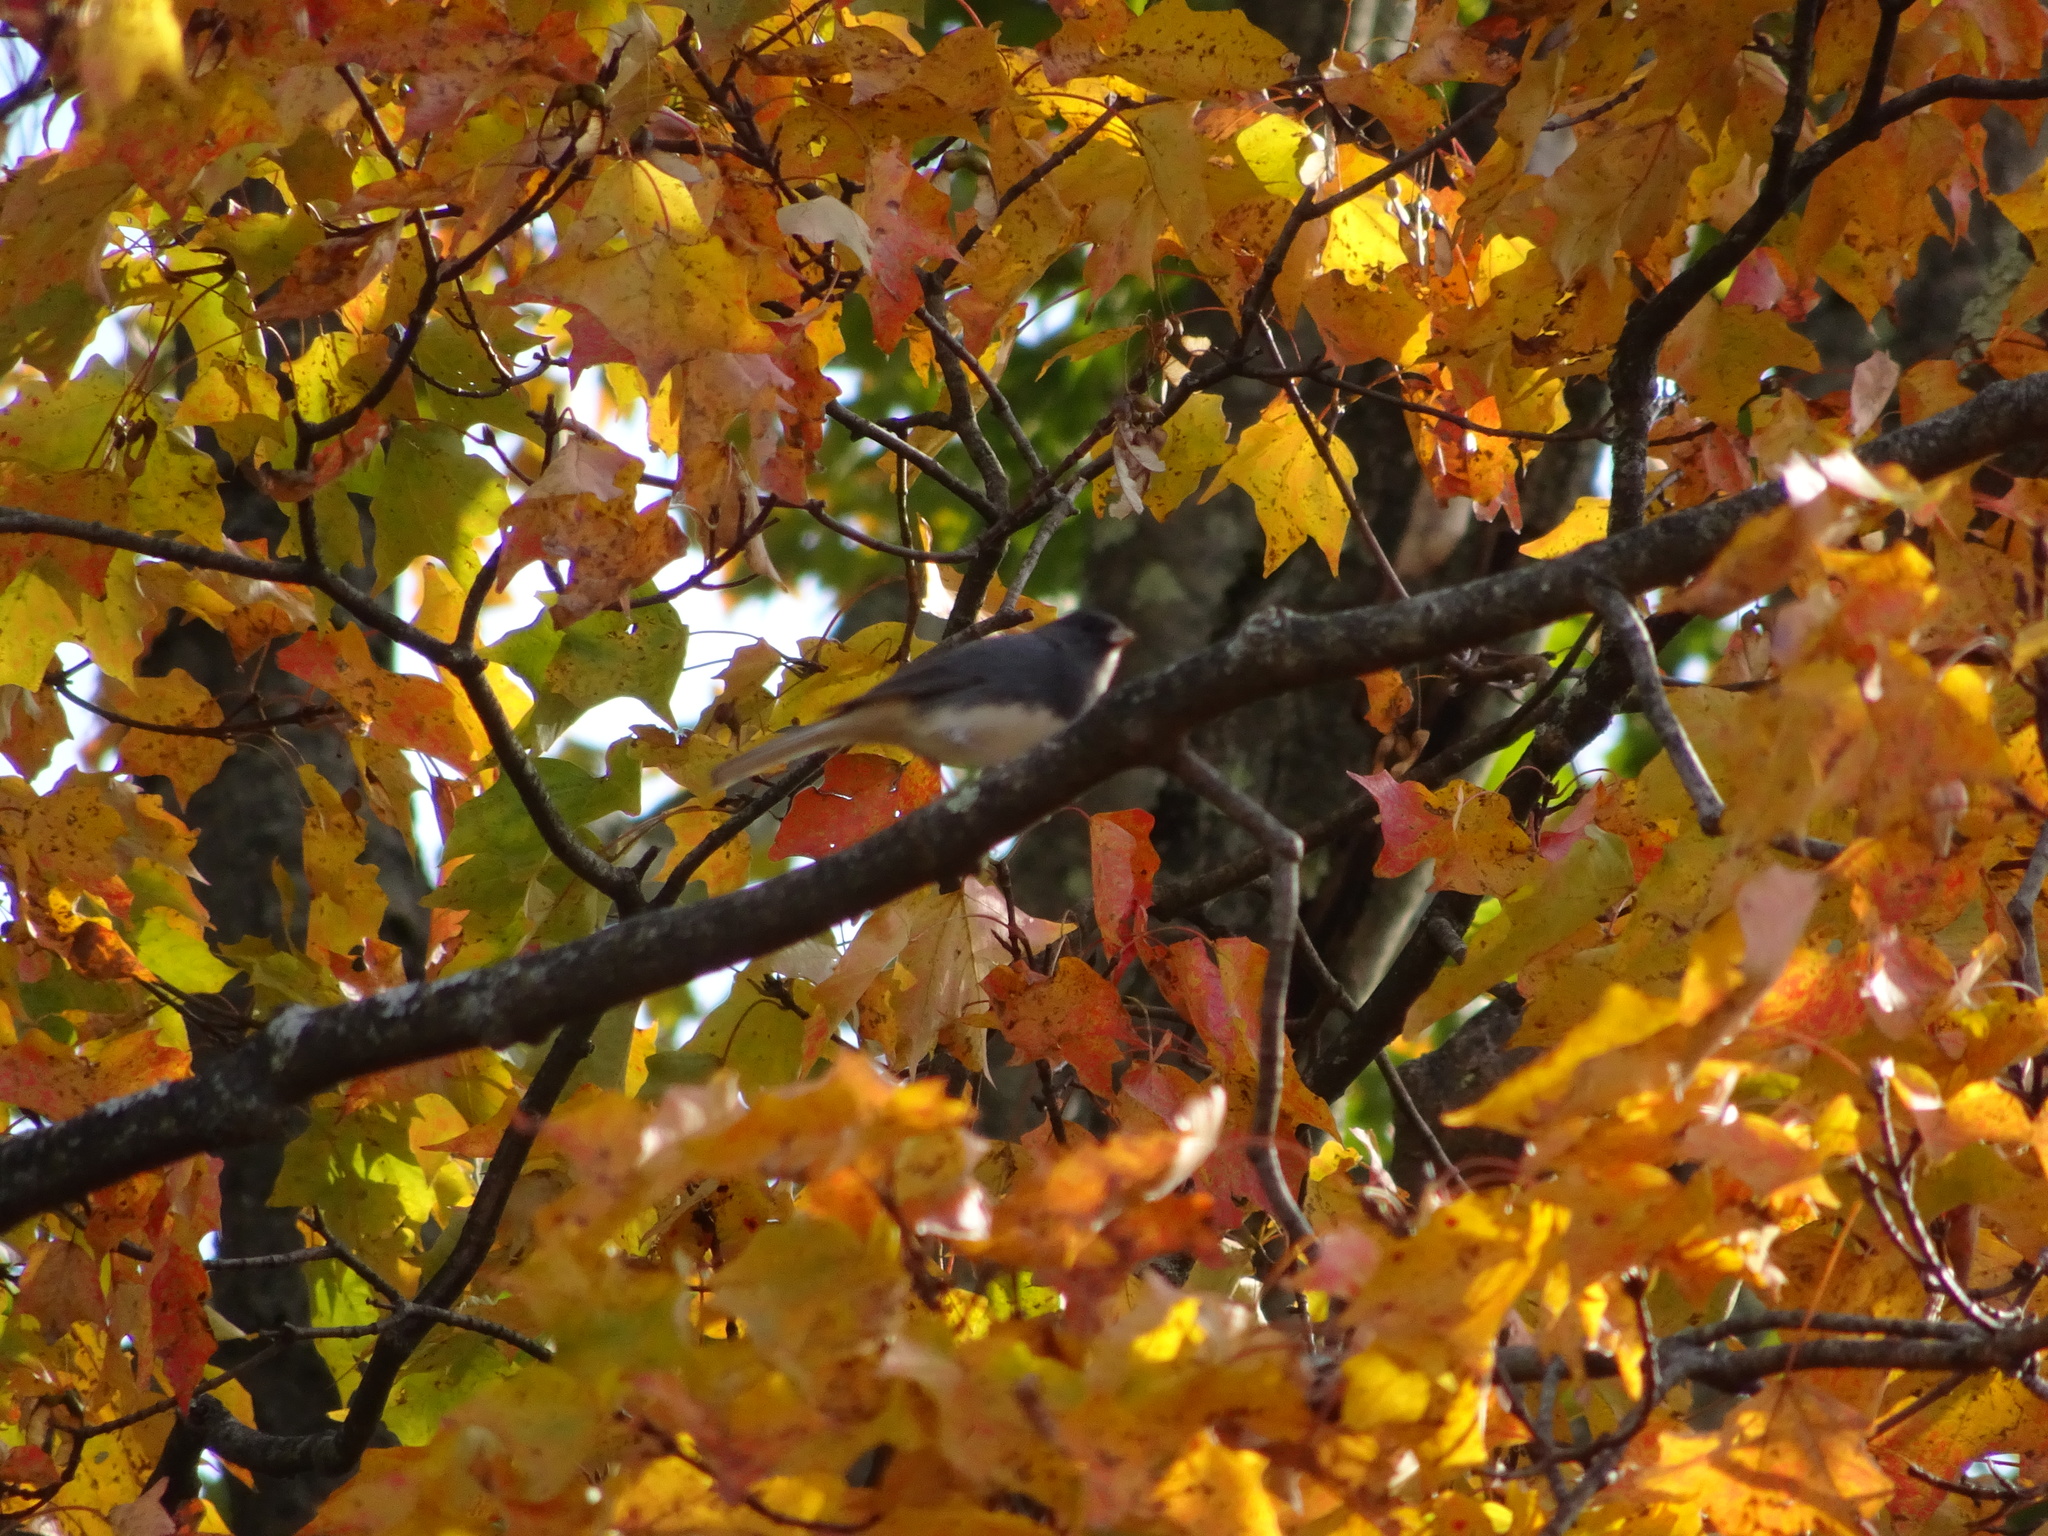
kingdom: Animalia
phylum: Chordata
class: Aves
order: Passeriformes
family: Passerellidae
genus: Junco
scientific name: Junco hyemalis
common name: Dark-eyed junco
